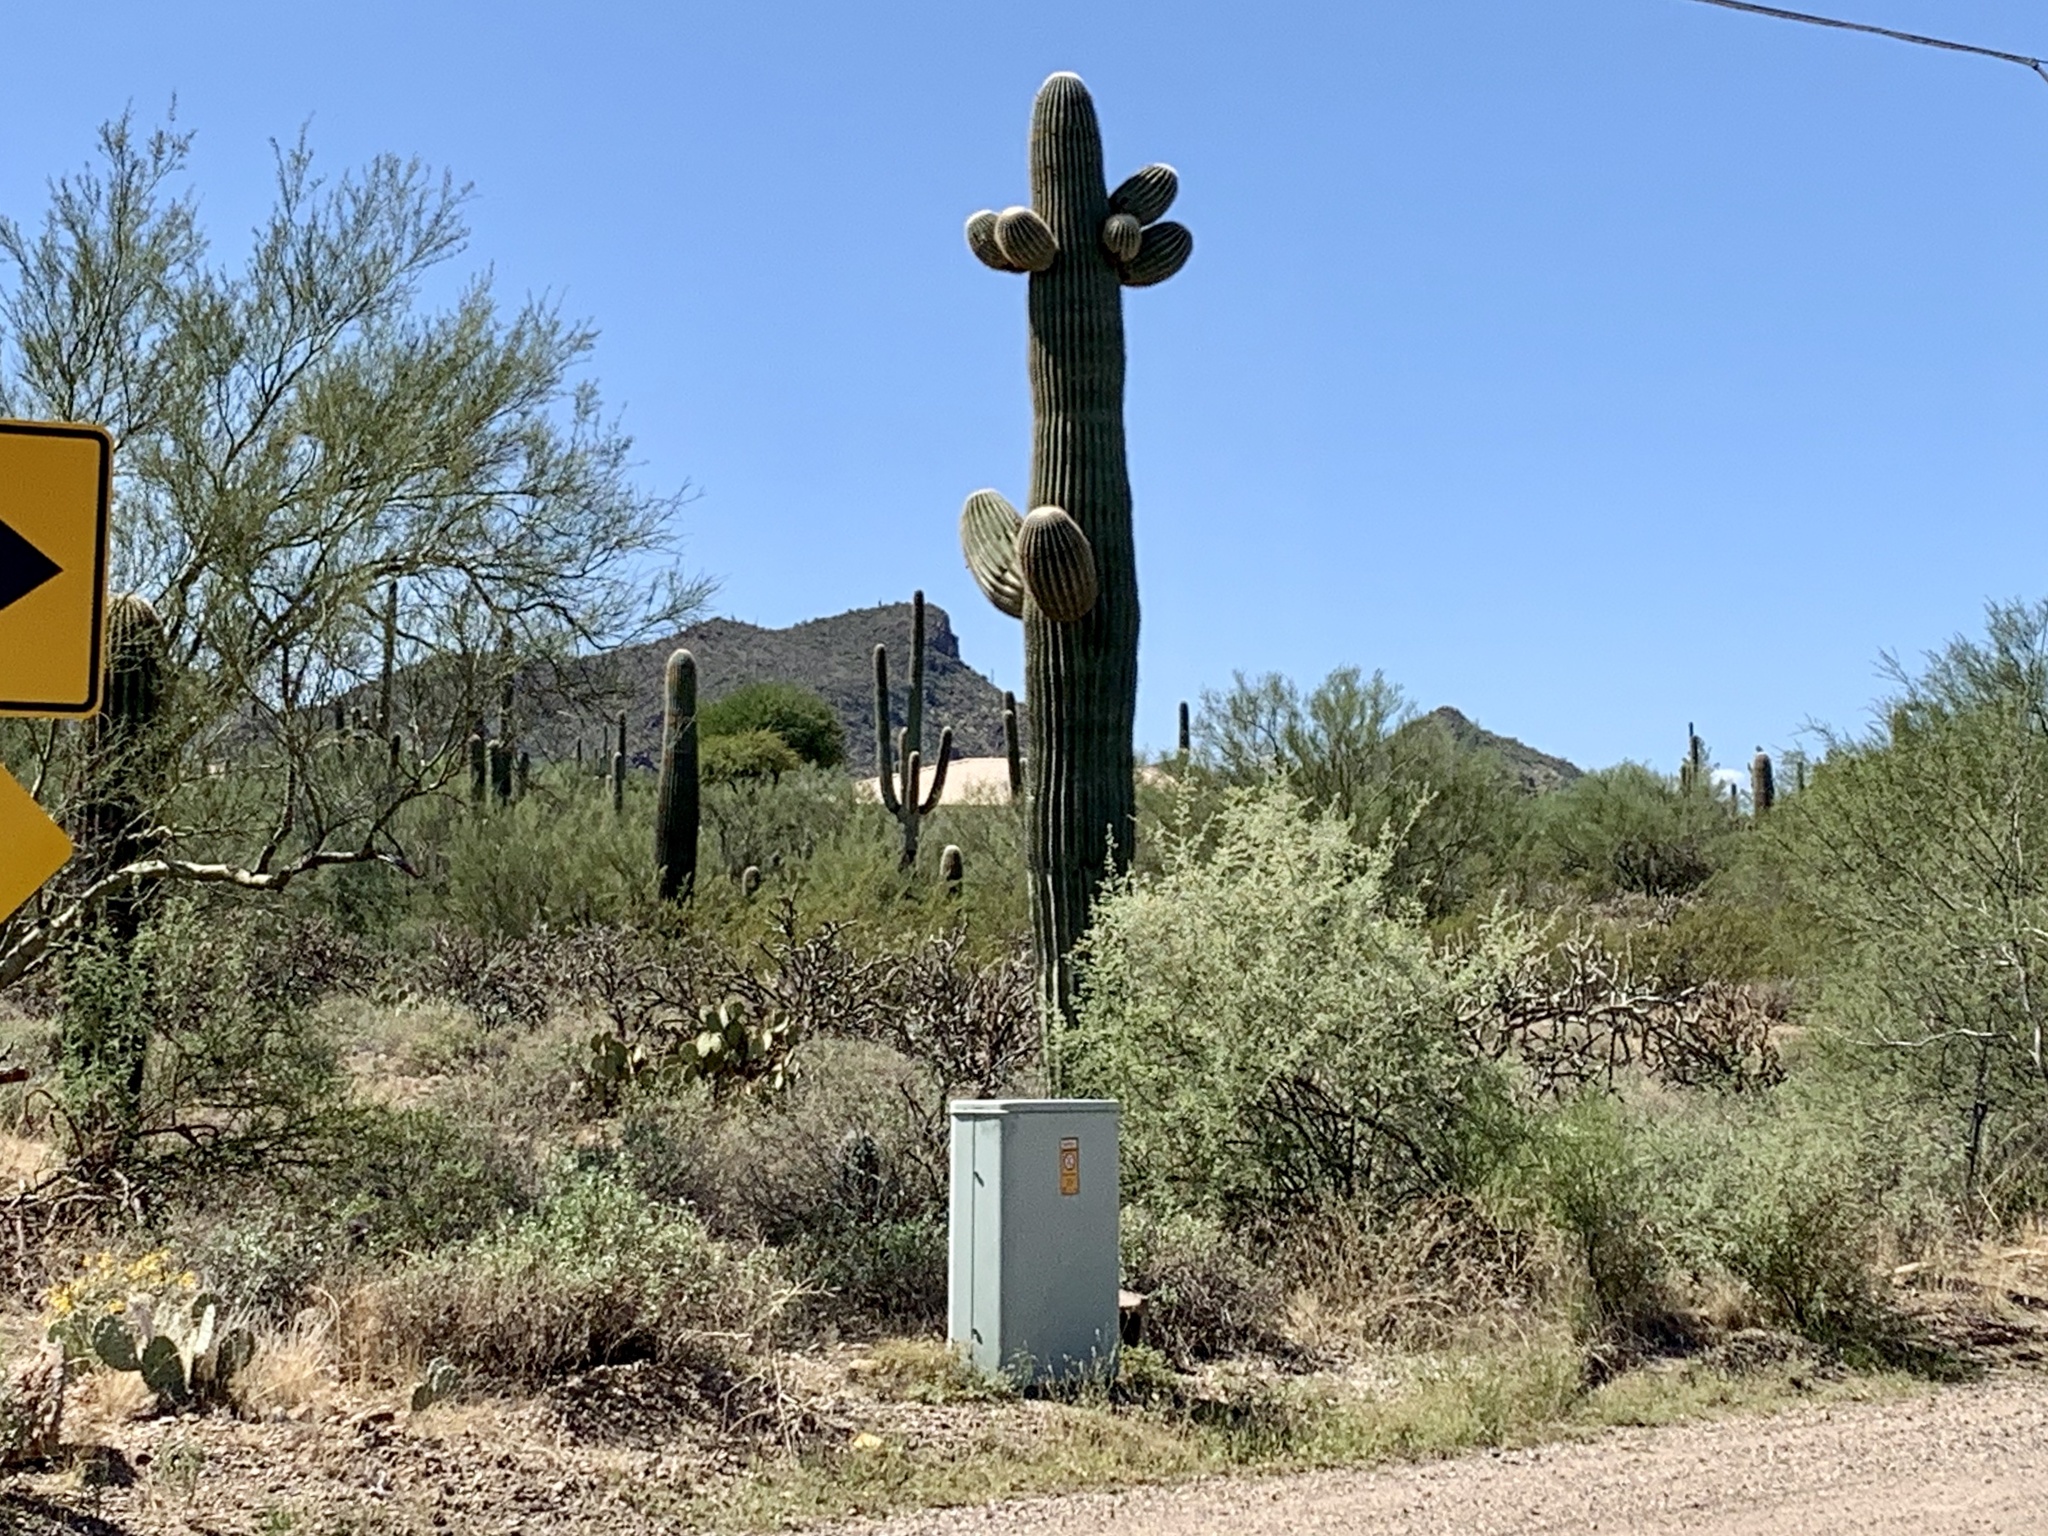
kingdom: Plantae
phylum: Tracheophyta
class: Magnoliopsida
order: Caryophyllales
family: Cactaceae
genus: Carnegiea
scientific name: Carnegiea gigantea
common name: Saguaro
